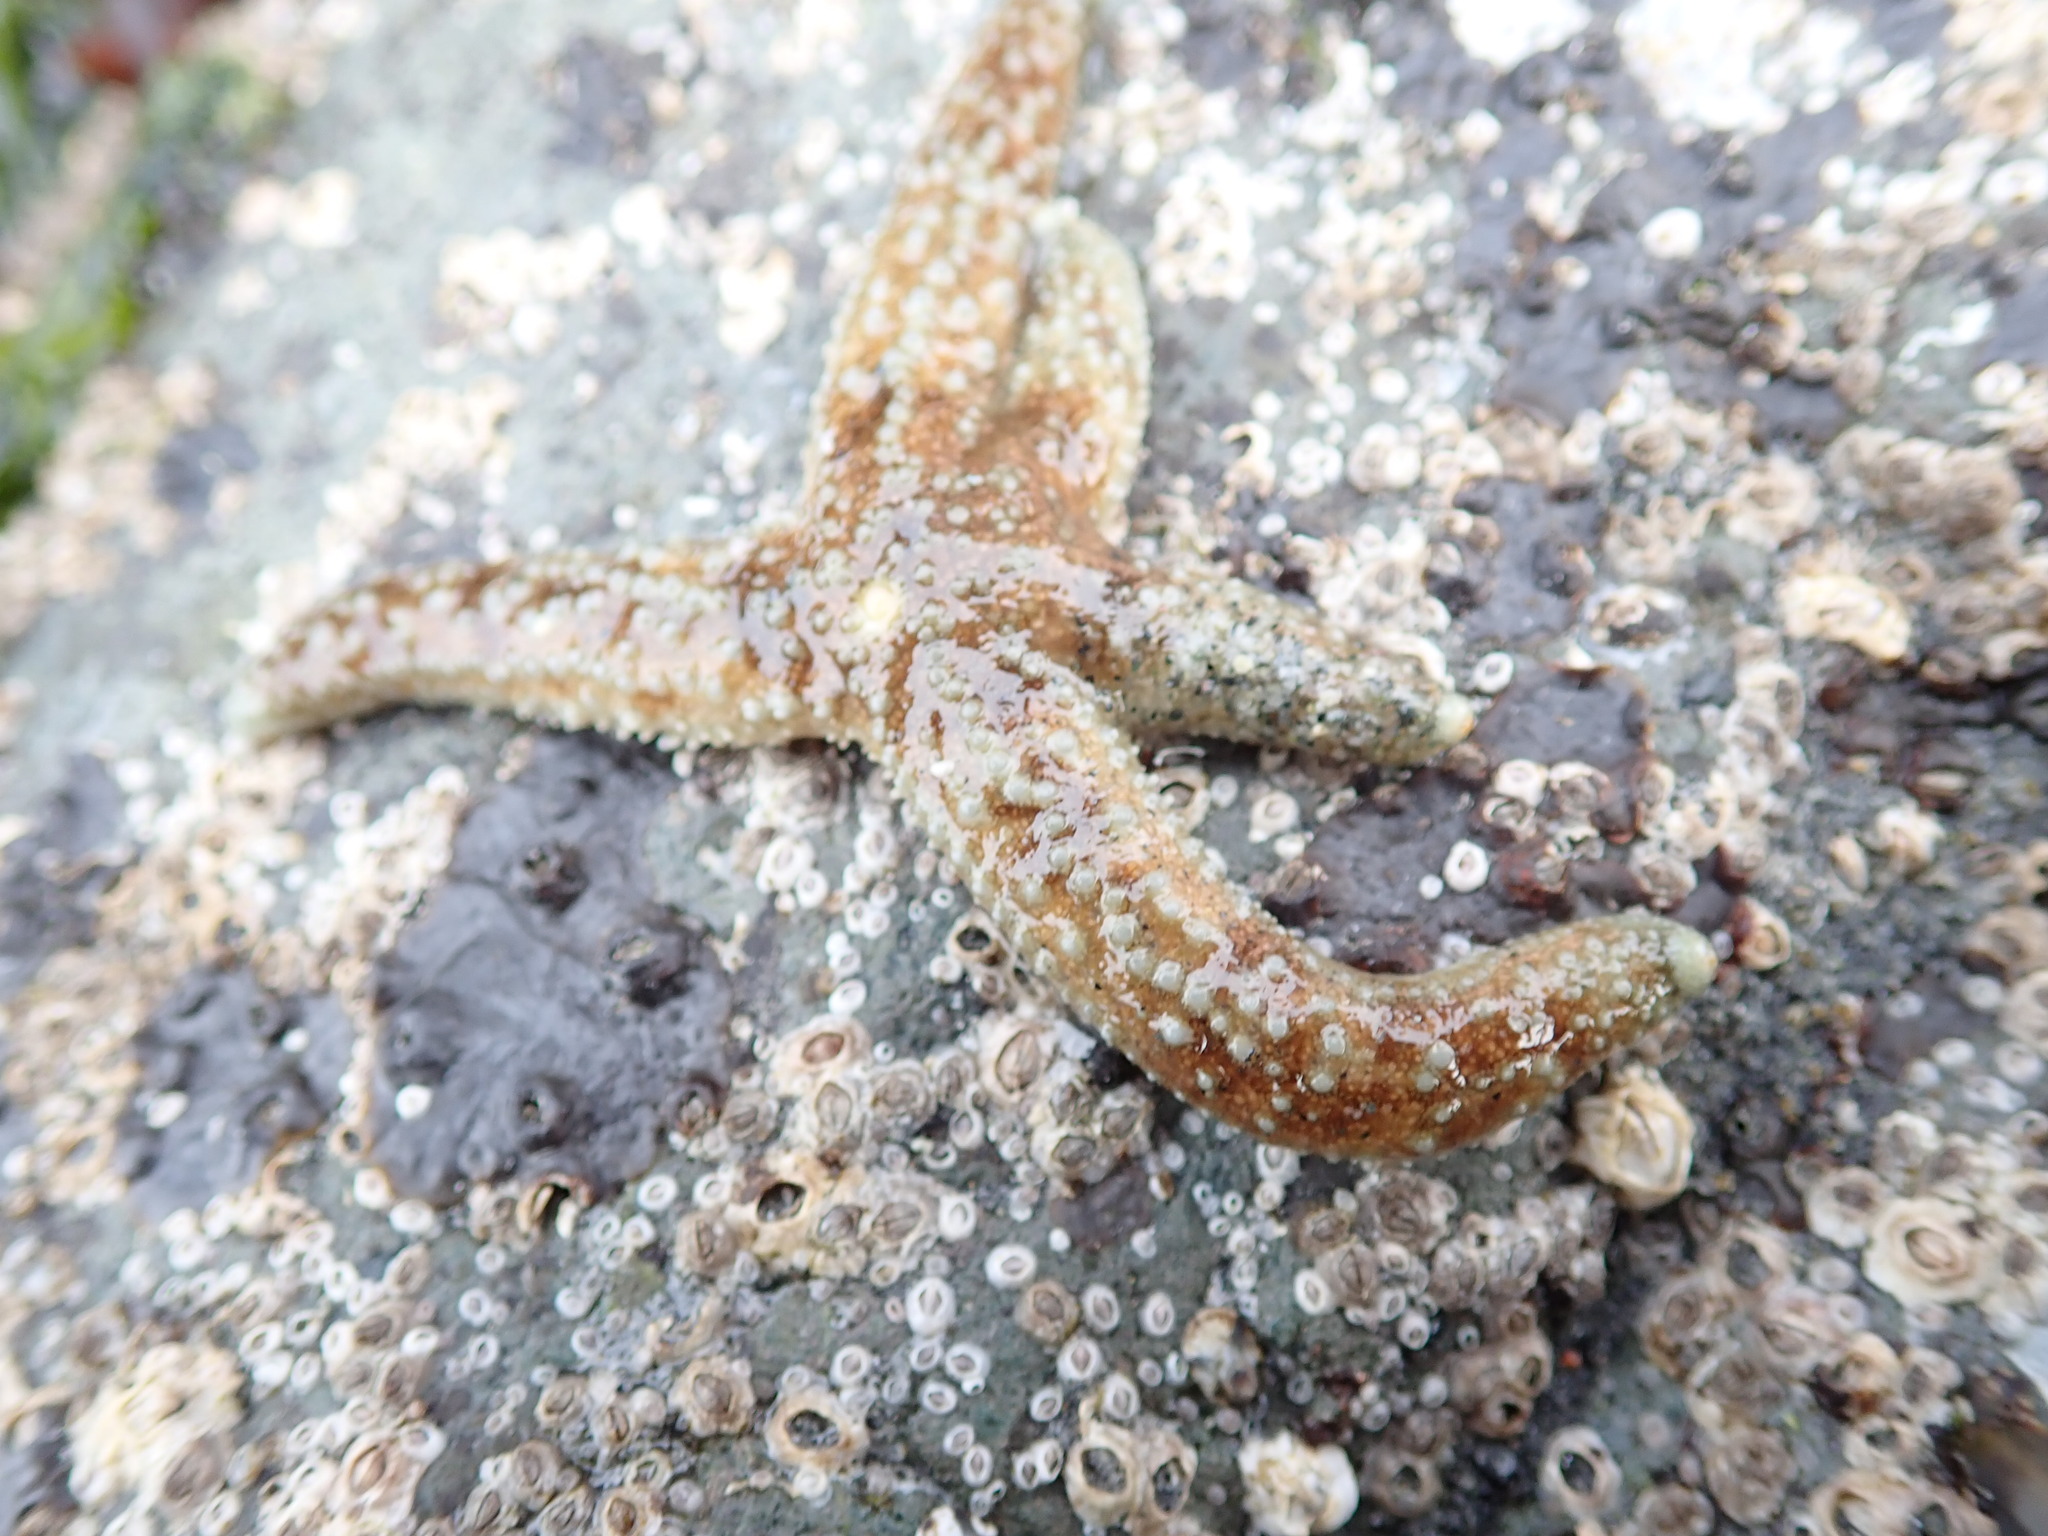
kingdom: Animalia
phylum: Echinodermata
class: Asteroidea
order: Forcipulatida
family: Asteriidae
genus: Evasterias
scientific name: Evasterias troschelii
